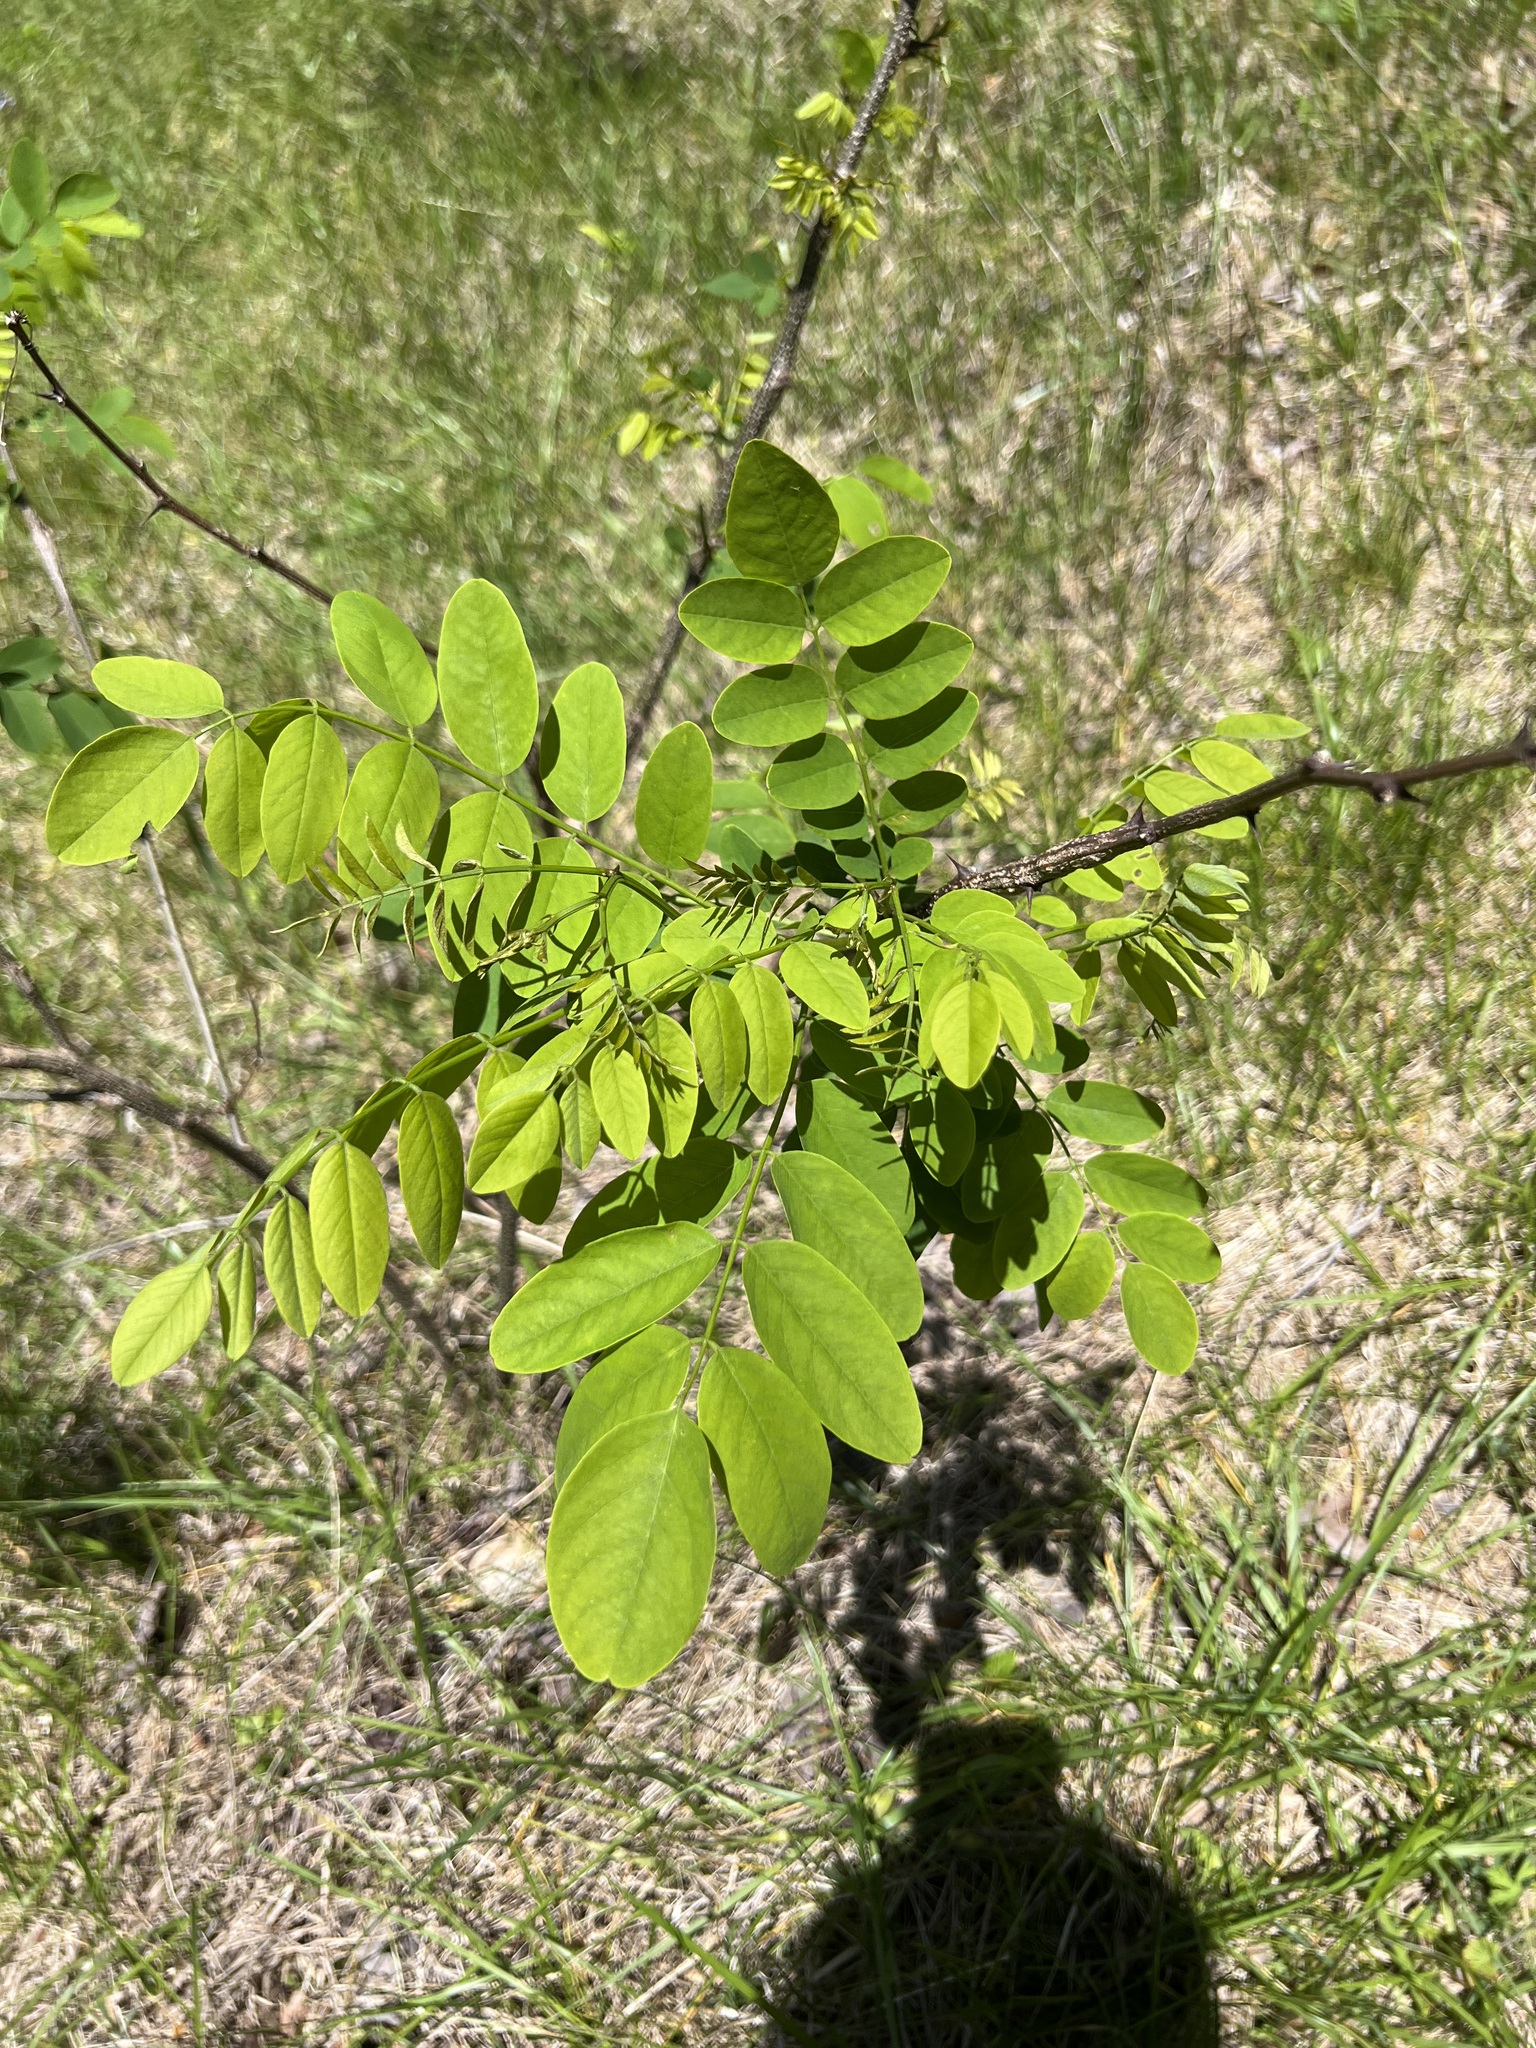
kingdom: Plantae
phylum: Tracheophyta
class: Magnoliopsida
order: Fabales
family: Fabaceae
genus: Robinia
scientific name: Robinia pseudoacacia
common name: Black locust
